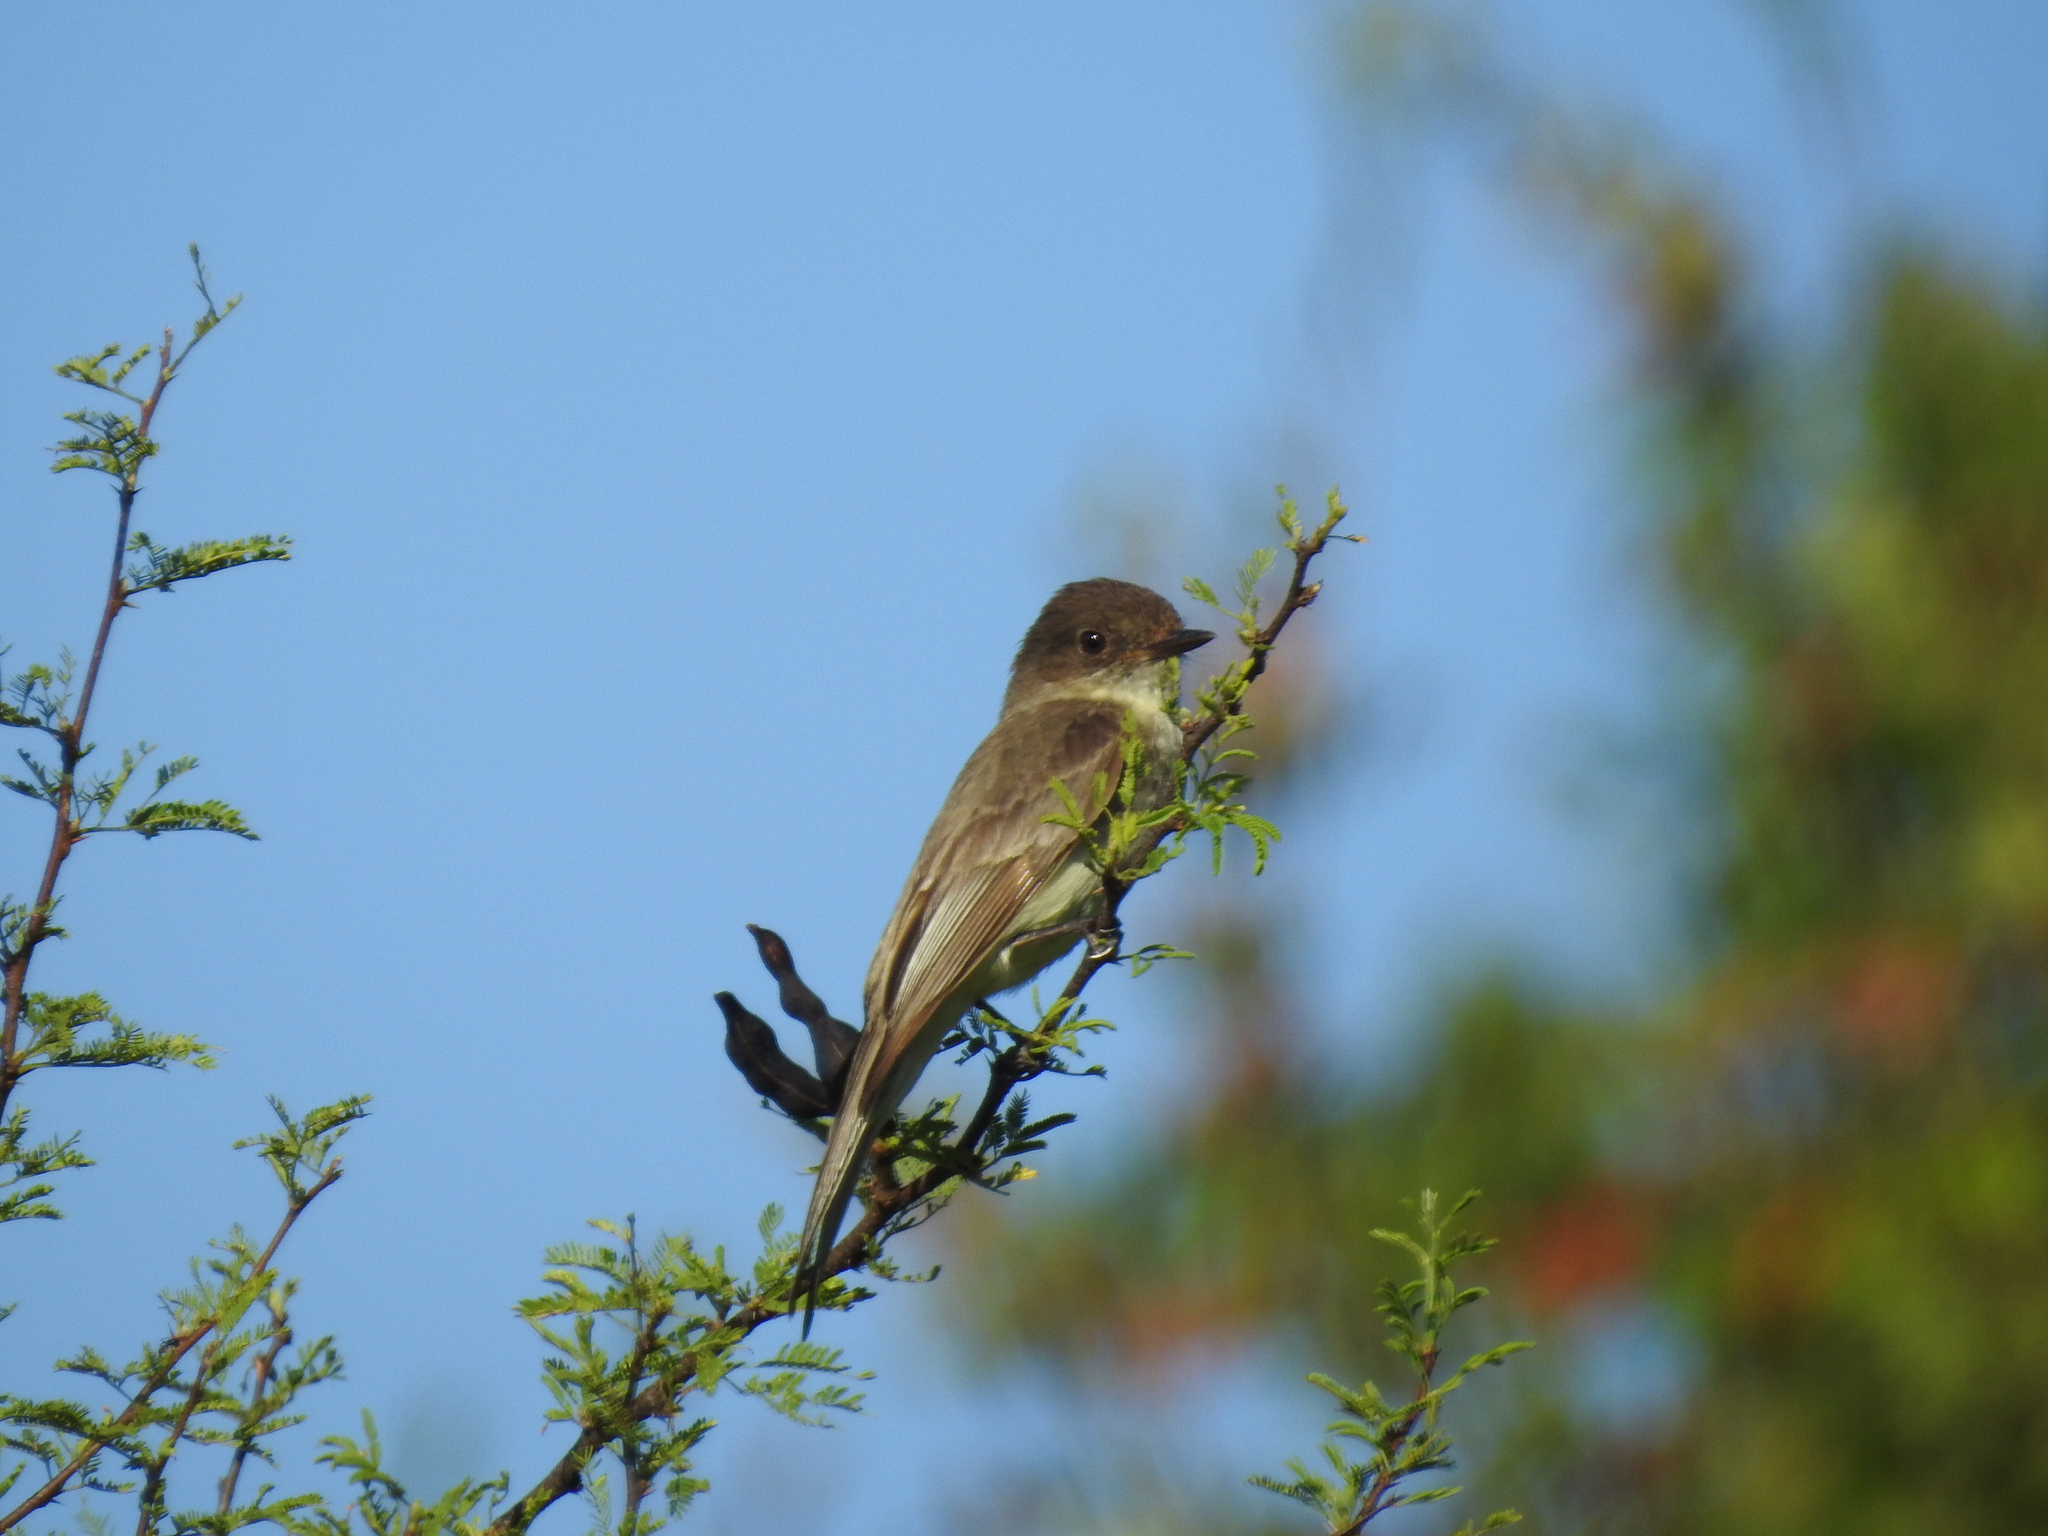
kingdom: Animalia
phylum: Chordata
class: Aves
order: Passeriformes
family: Tyrannidae
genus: Sayornis
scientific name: Sayornis phoebe
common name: Eastern phoebe
